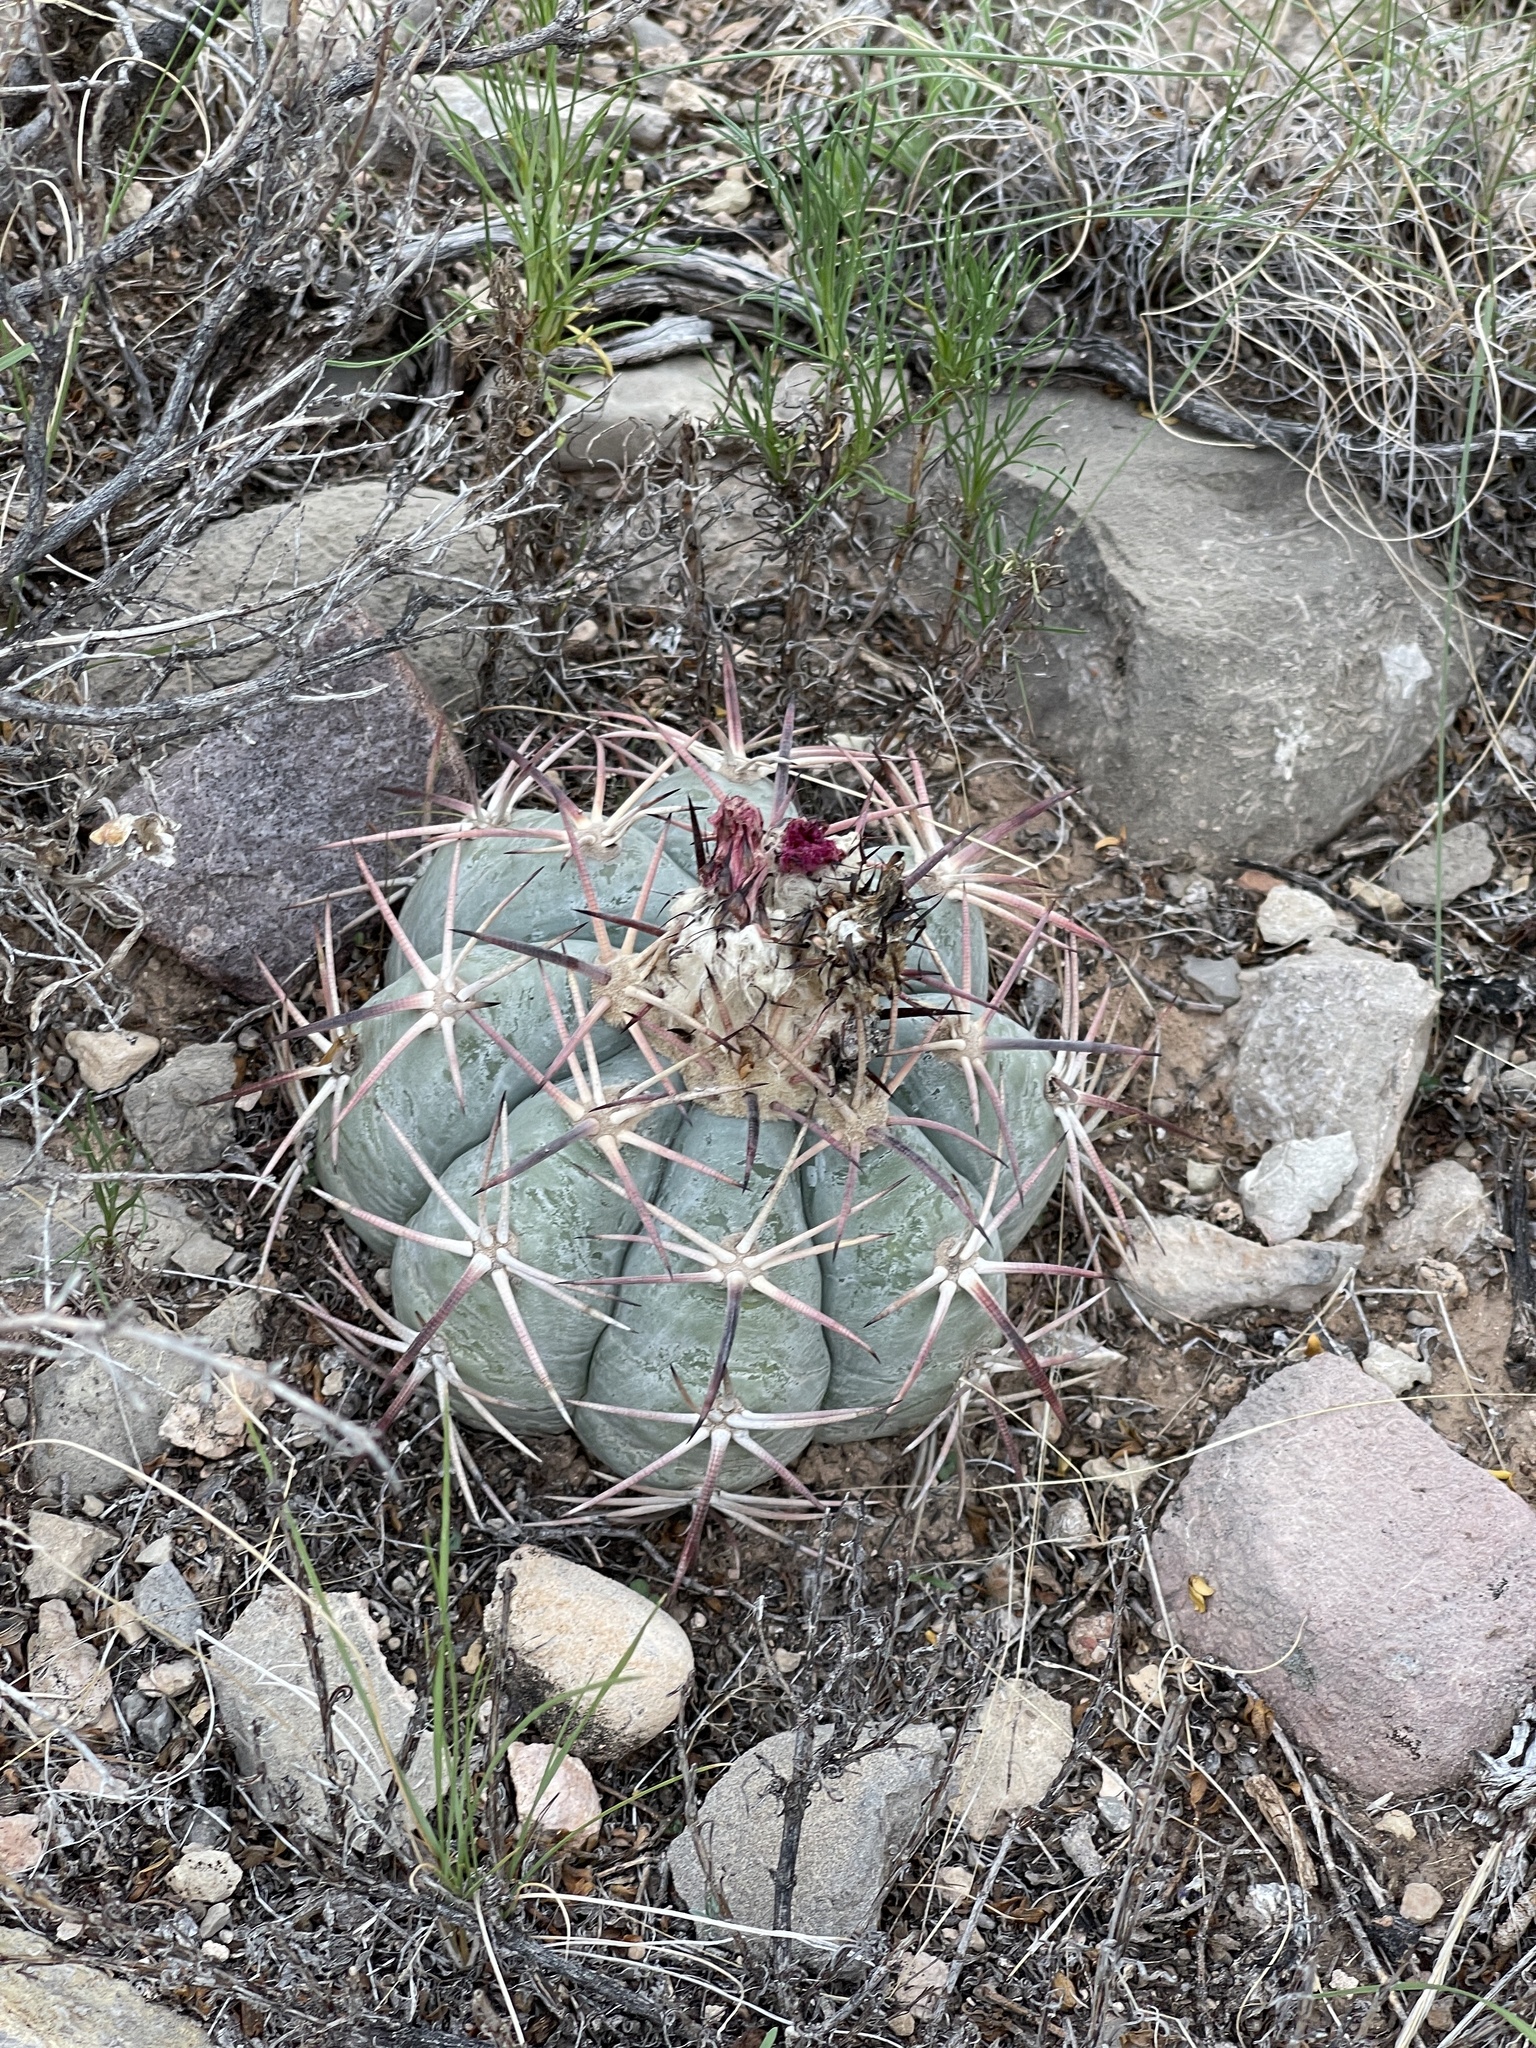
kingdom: Plantae
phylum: Tracheophyta
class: Magnoliopsida
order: Caryophyllales
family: Cactaceae
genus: Echinocactus
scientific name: Echinocactus horizonthalonius
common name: Devilshead
